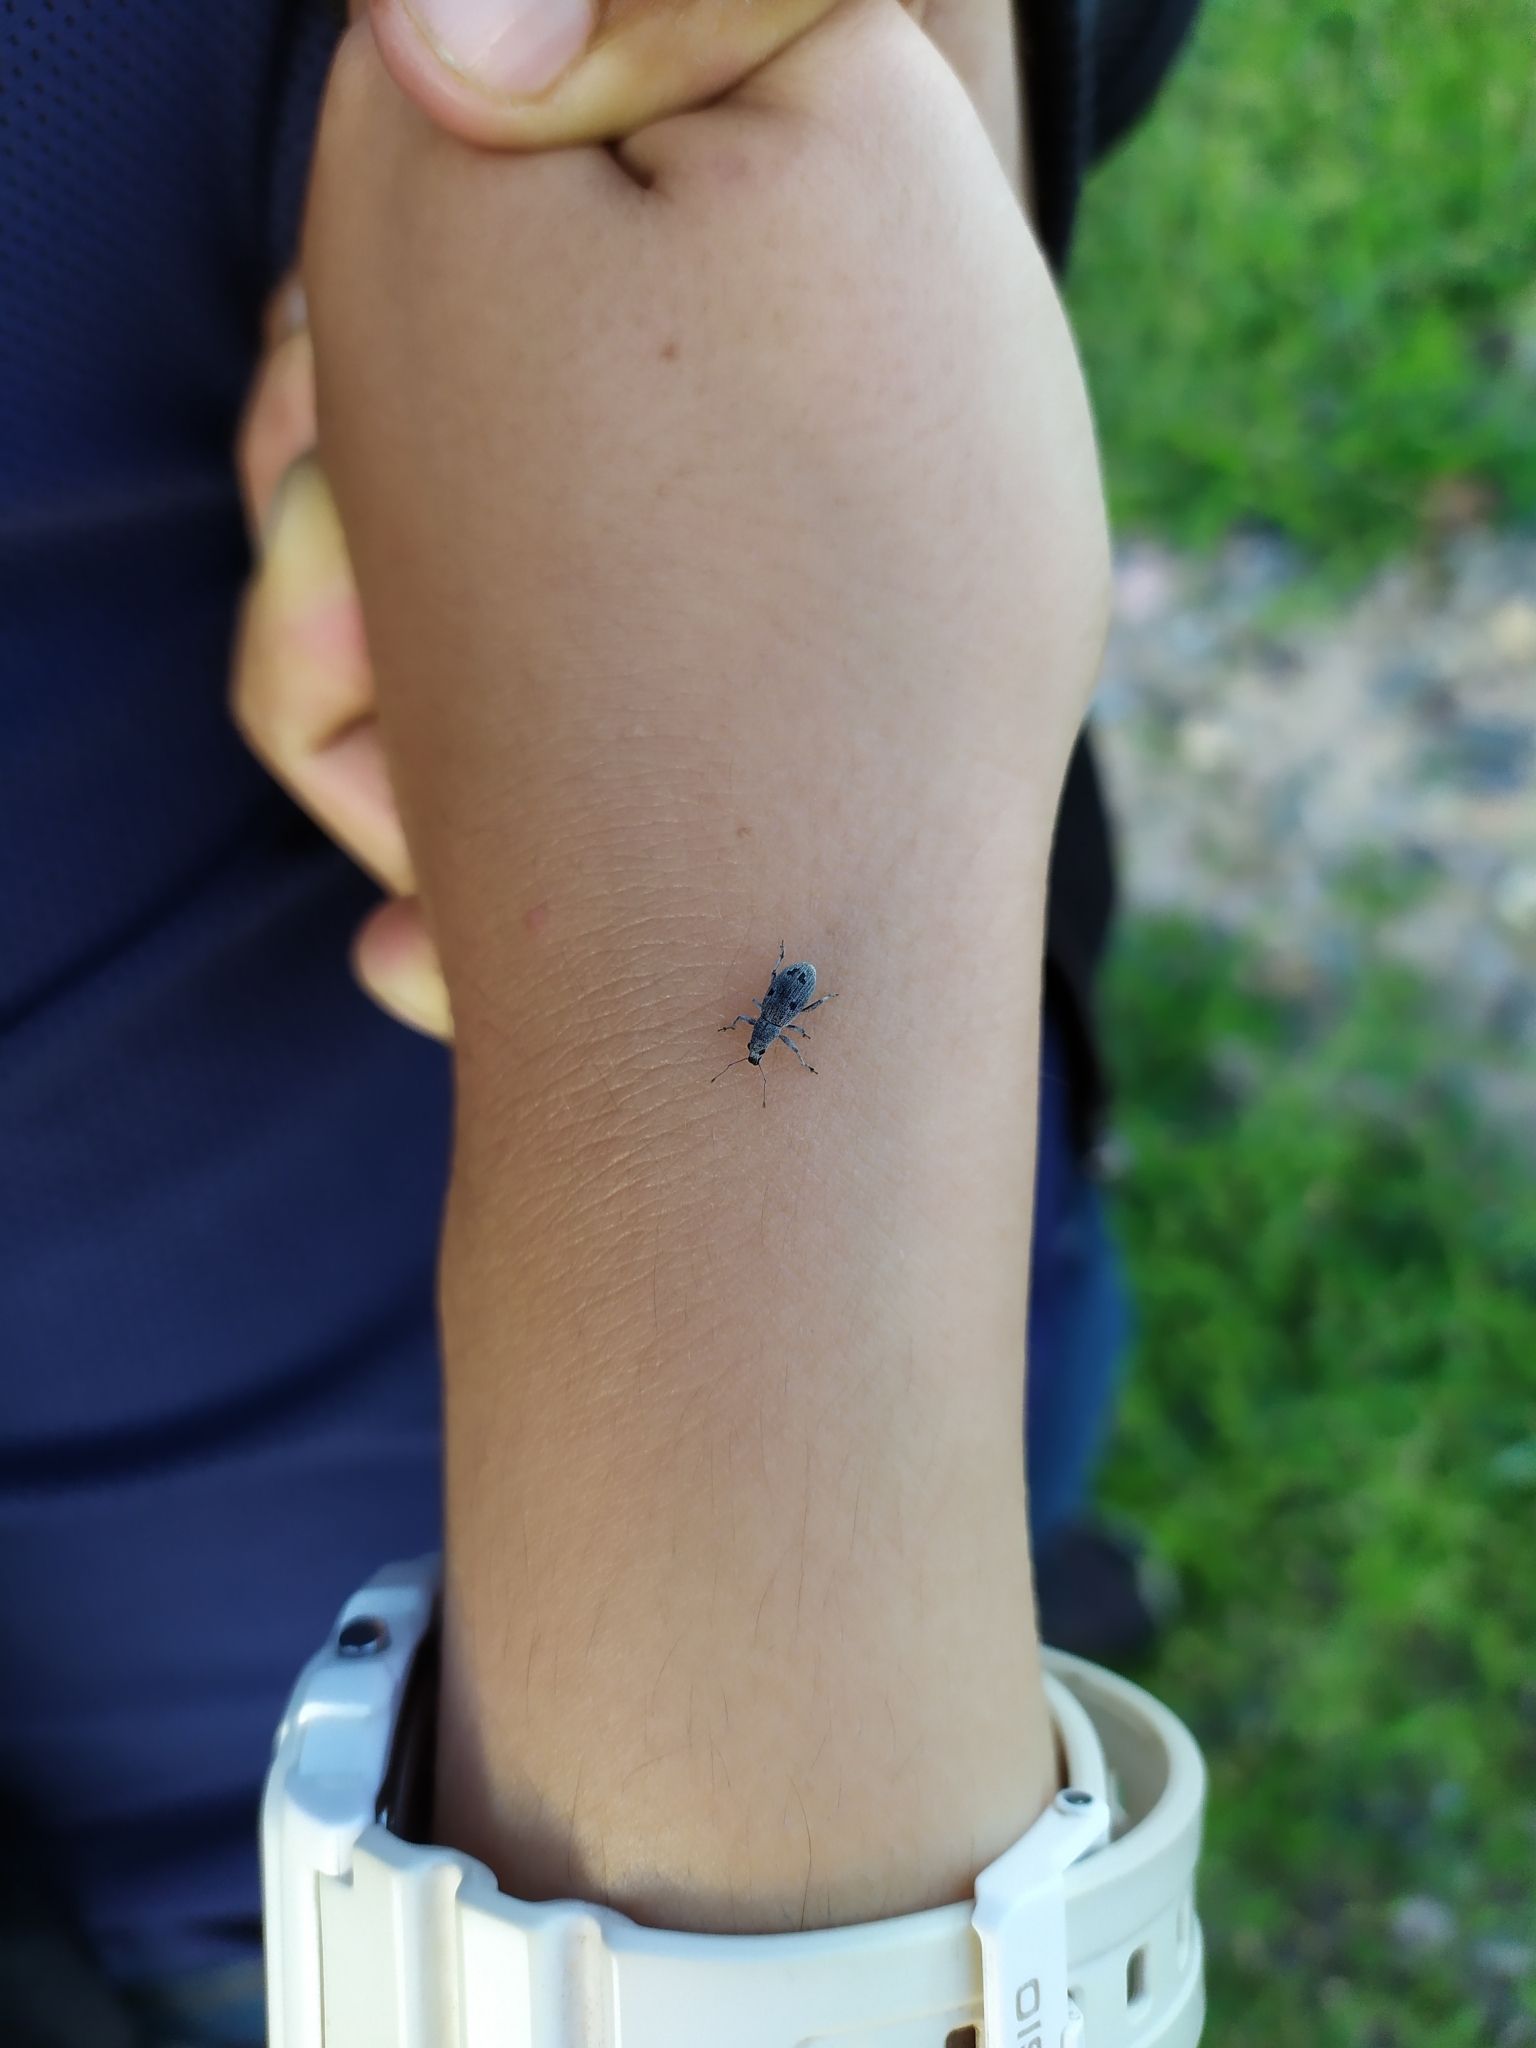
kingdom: Animalia
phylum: Arthropoda
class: Insecta
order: Coleoptera
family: Curculionidae
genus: Mitostylus
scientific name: Mitostylus fragilis
